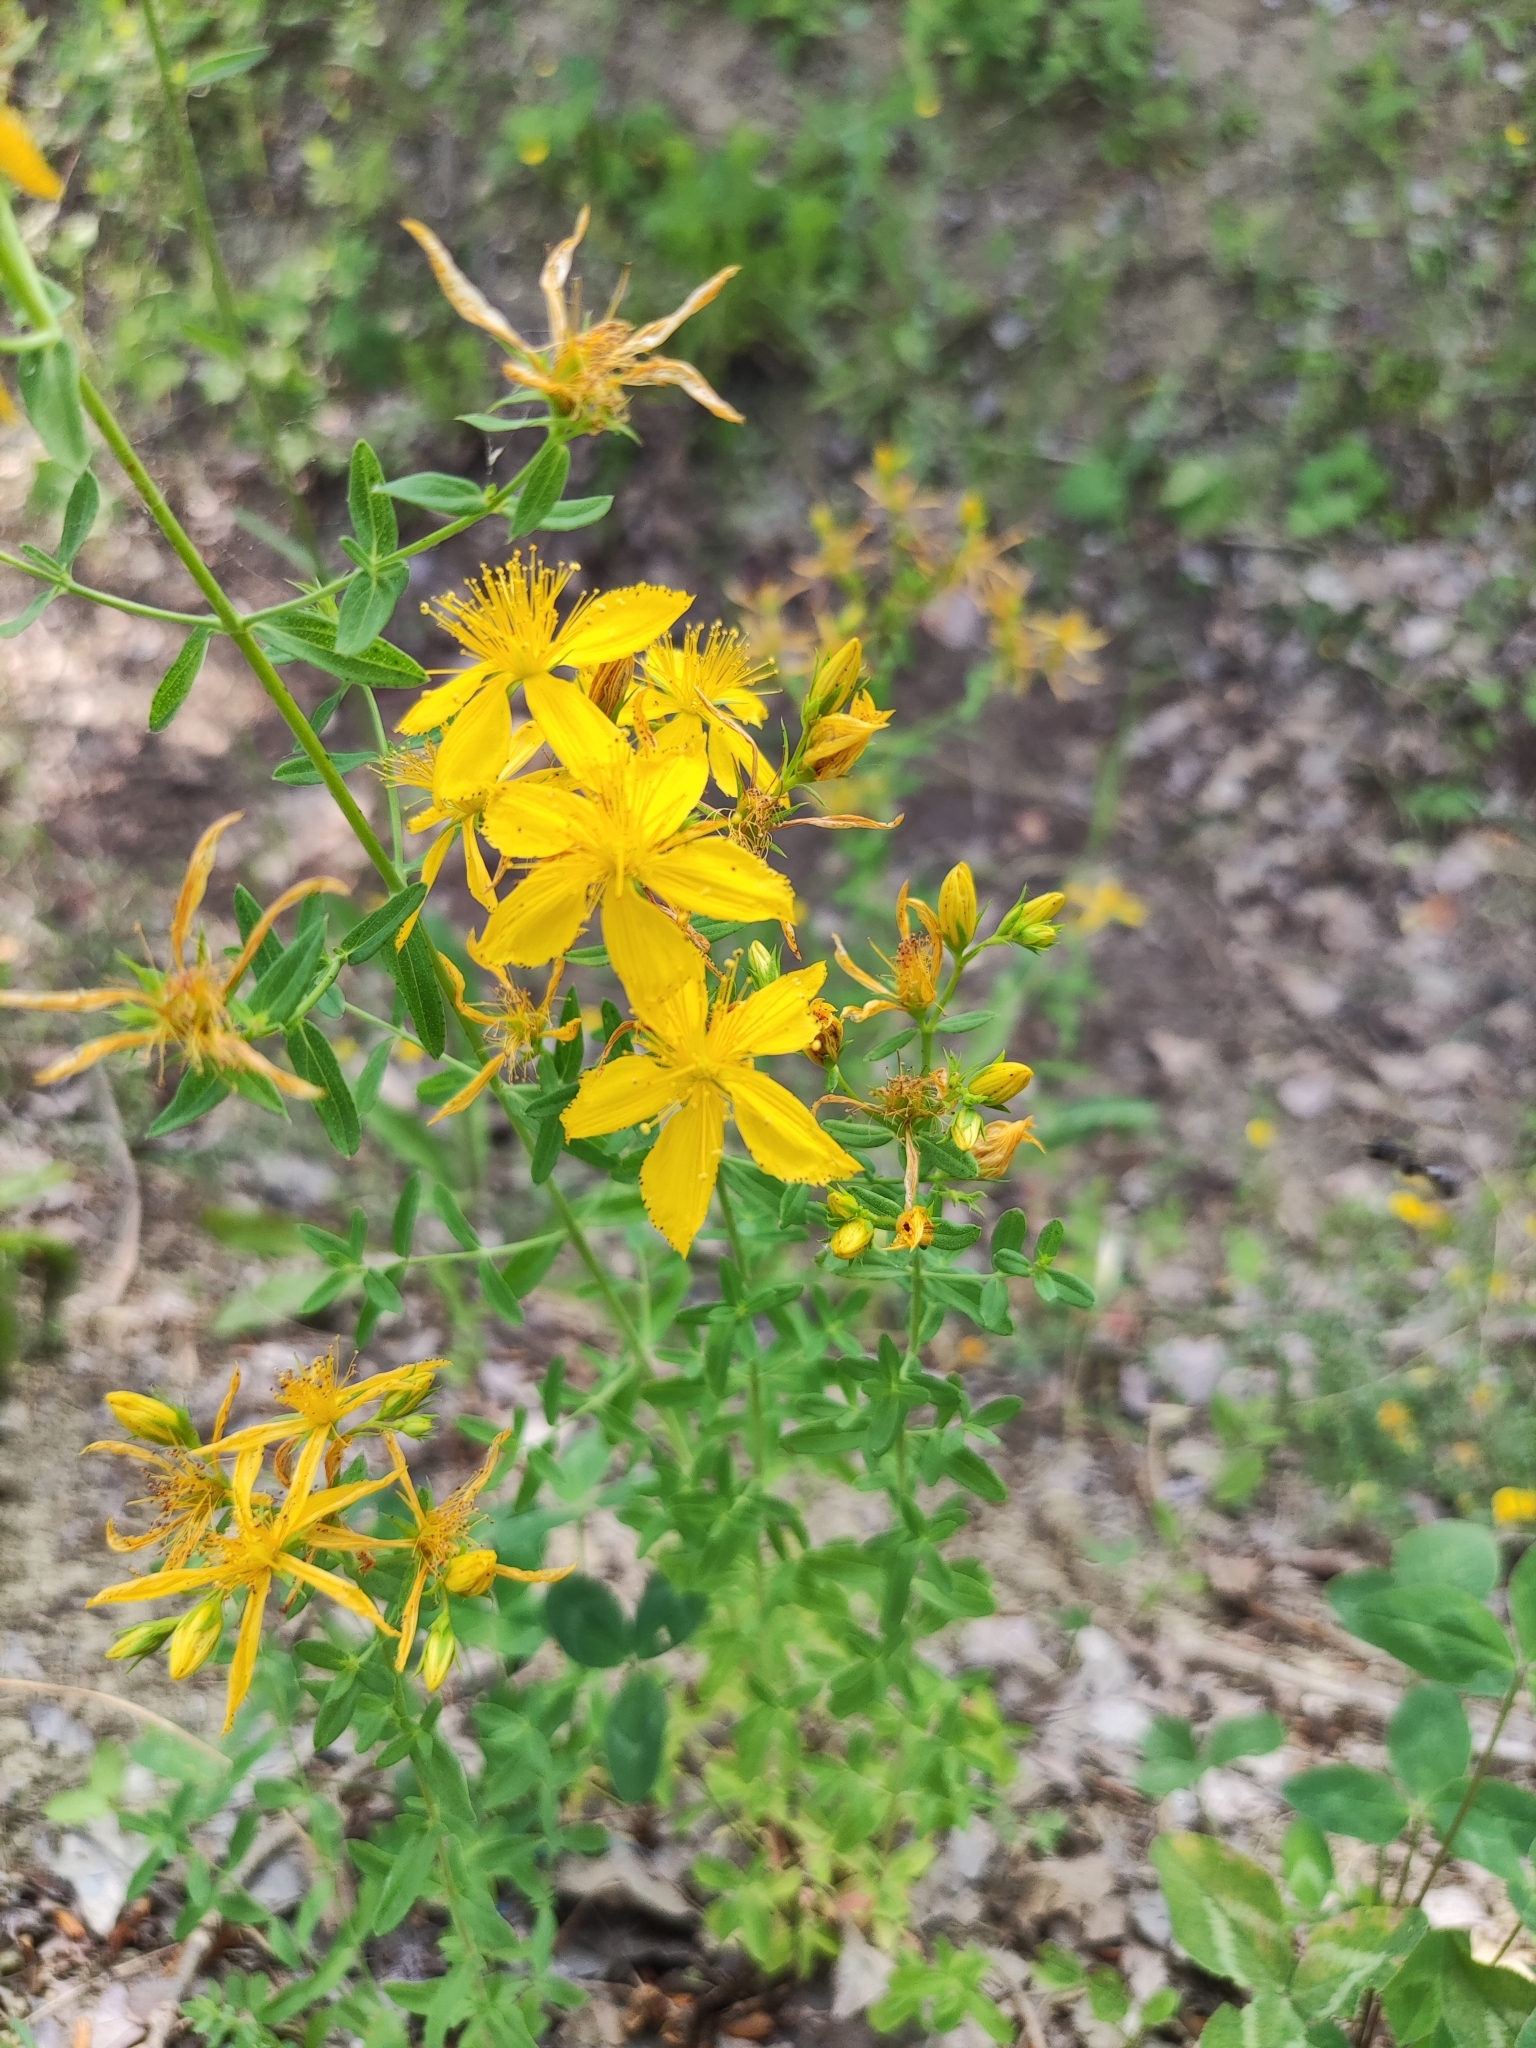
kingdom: Plantae
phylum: Tracheophyta
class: Magnoliopsida
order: Malpighiales
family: Hypericaceae
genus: Hypericum
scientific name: Hypericum perforatum
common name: Common st. johnswort
